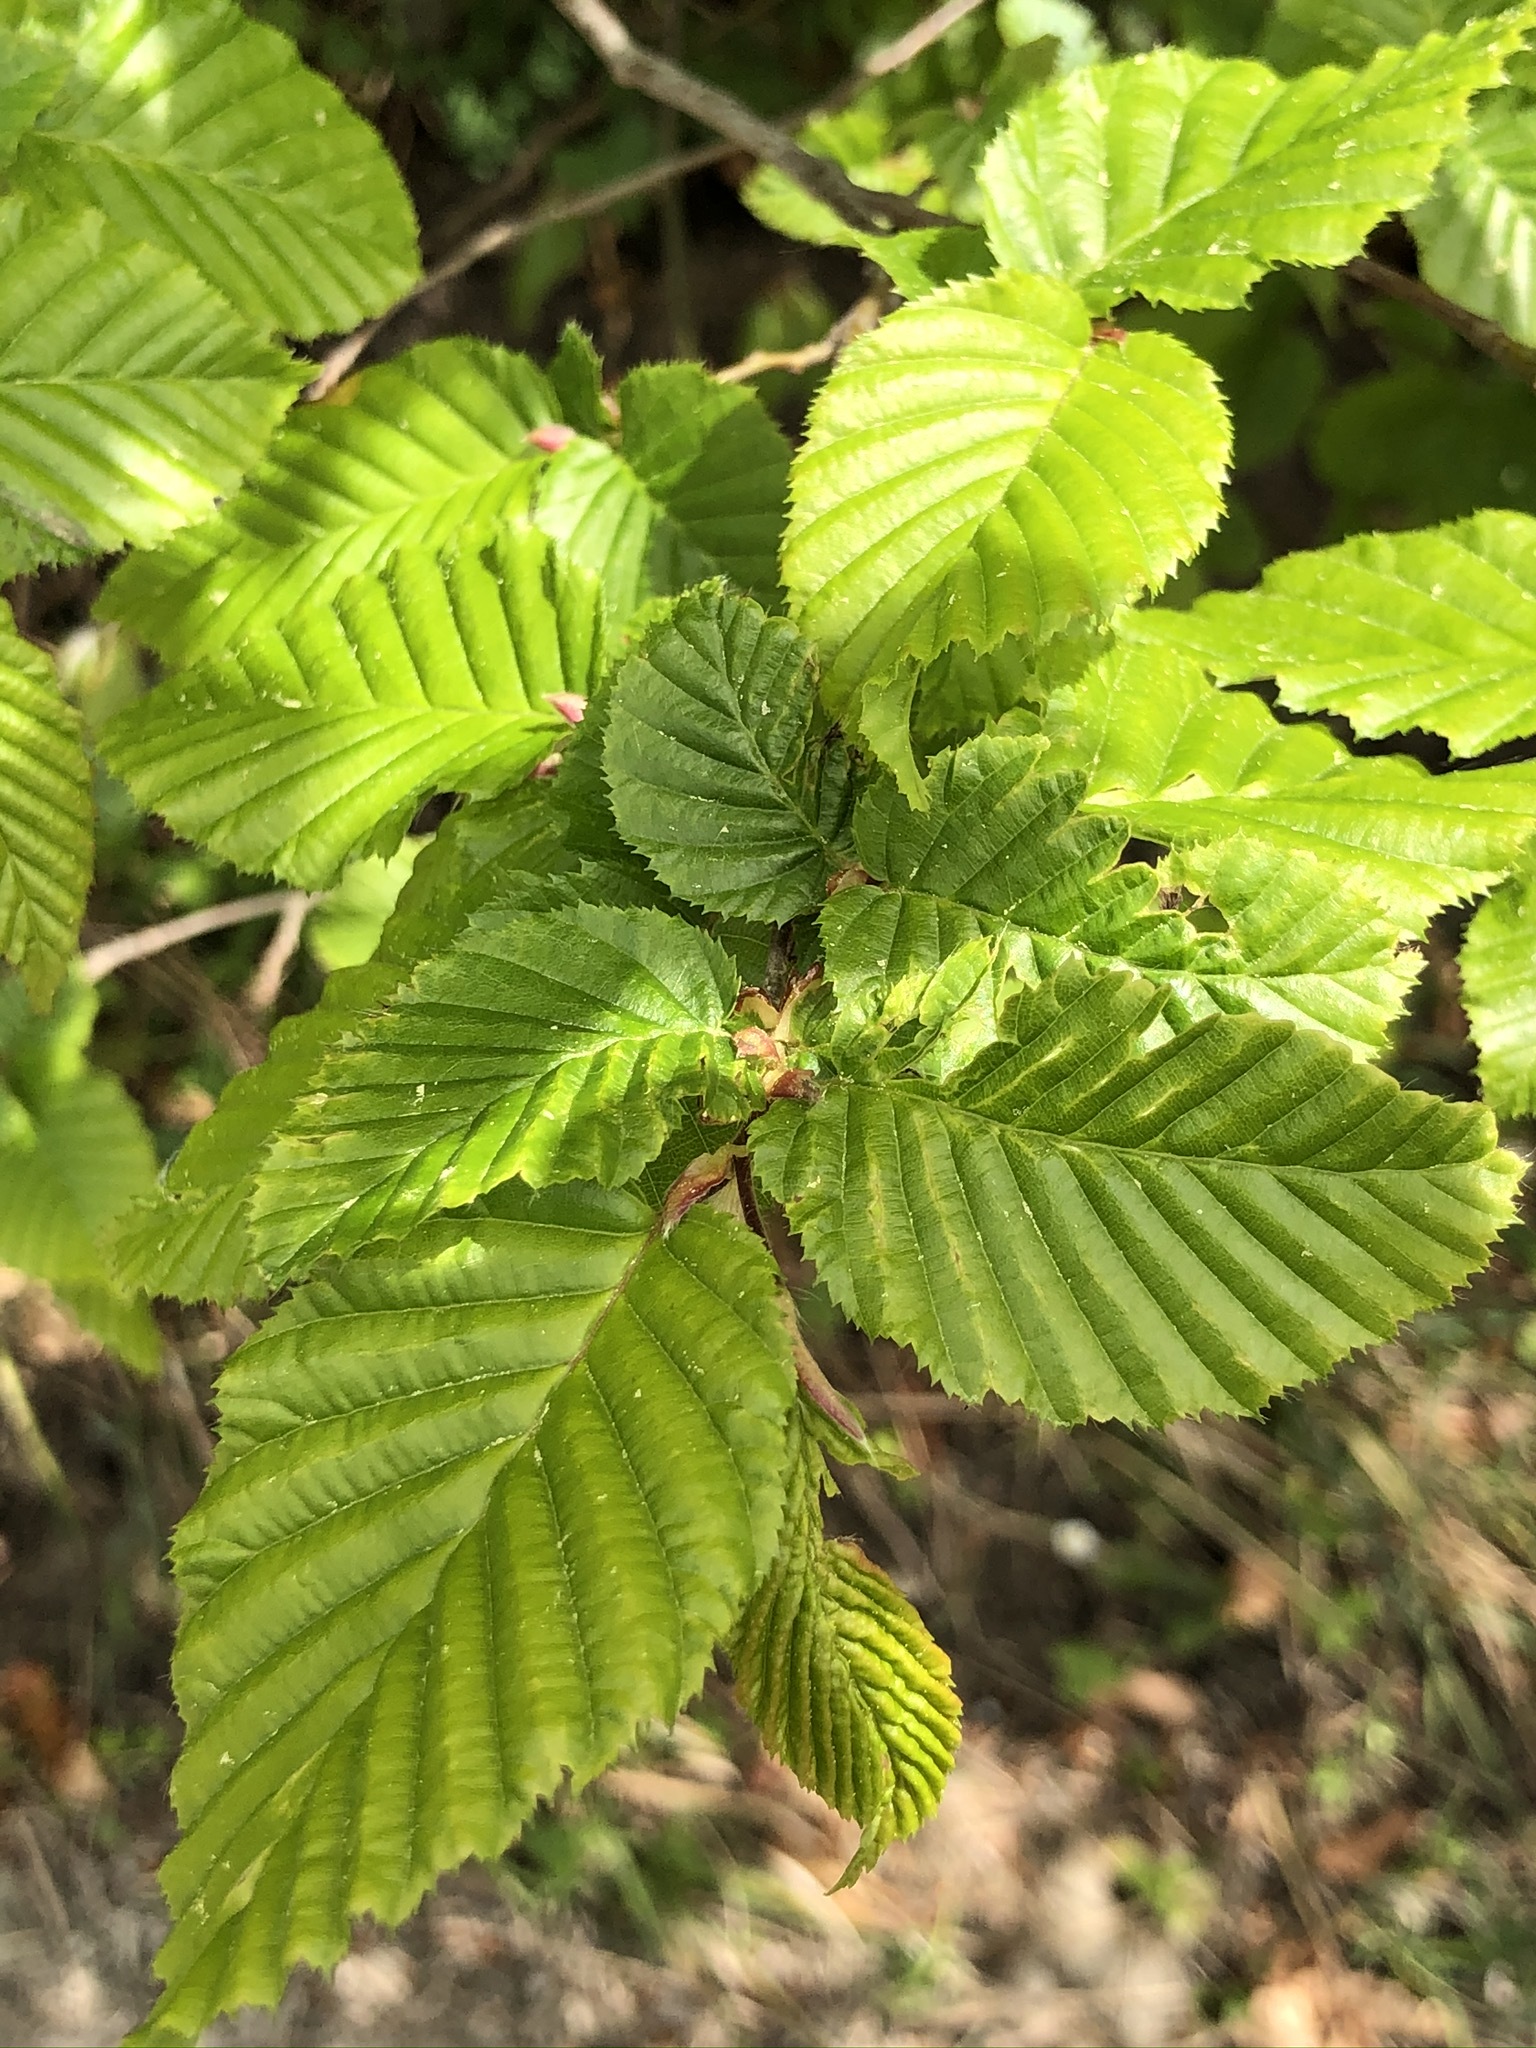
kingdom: Plantae
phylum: Tracheophyta
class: Magnoliopsida
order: Fagales
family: Betulaceae
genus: Carpinus
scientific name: Carpinus betulus
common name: Hornbeam
